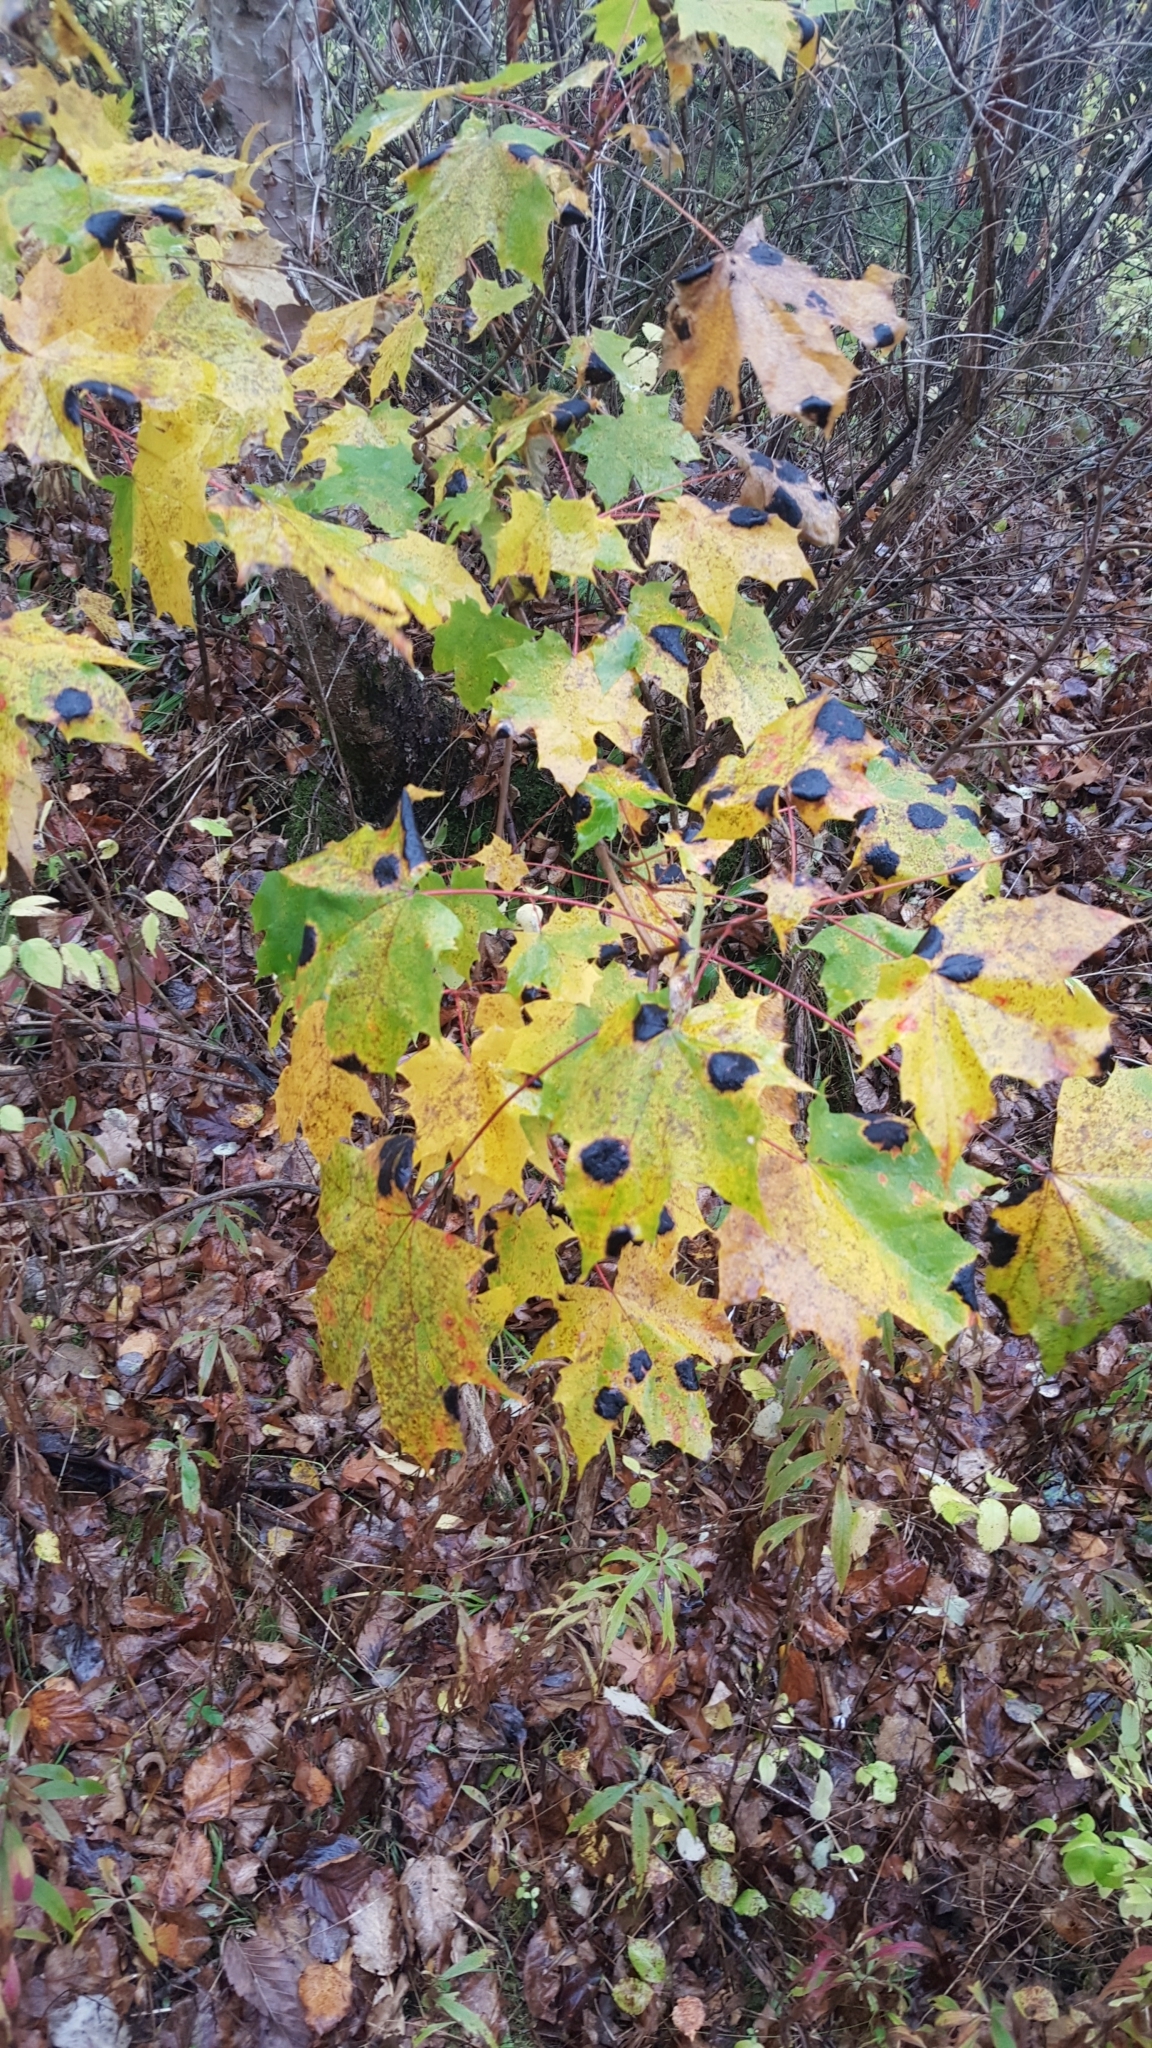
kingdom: Plantae
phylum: Tracheophyta
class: Magnoliopsida
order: Sapindales
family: Sapindaceae
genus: Acer
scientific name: Acer platanoides
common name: Norway maple
